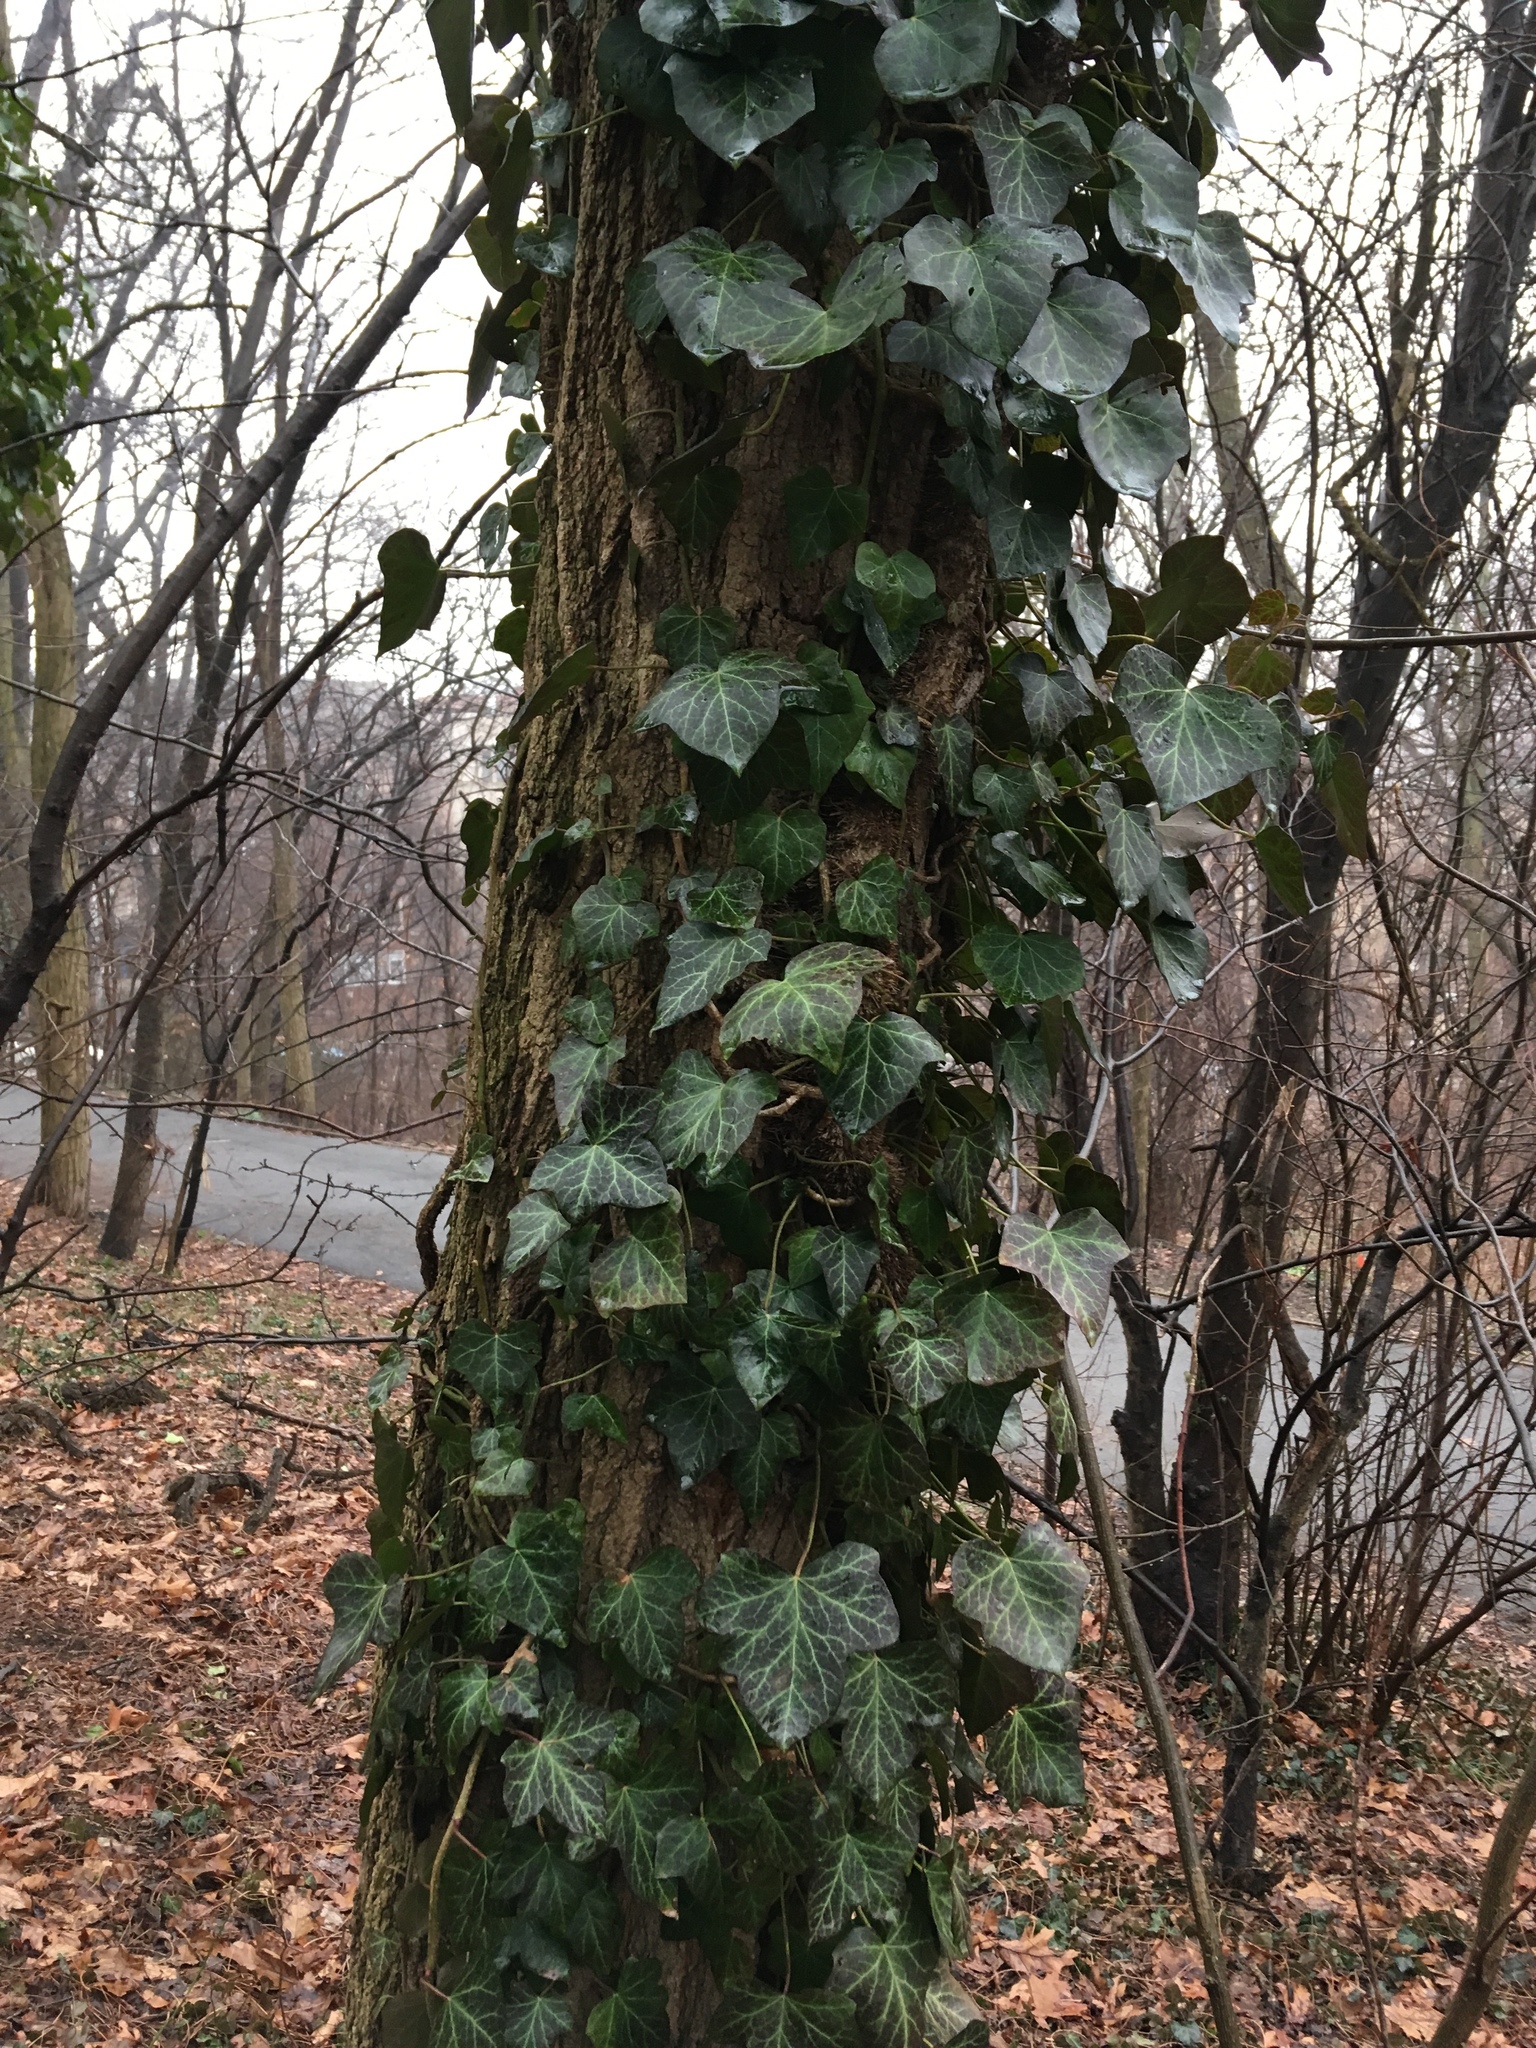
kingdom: Plantae
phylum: Tracheophyta
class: Magnoliopsida
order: Apiales
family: Araliaceae
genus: Hedera
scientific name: Hedera helix
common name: Ivy
